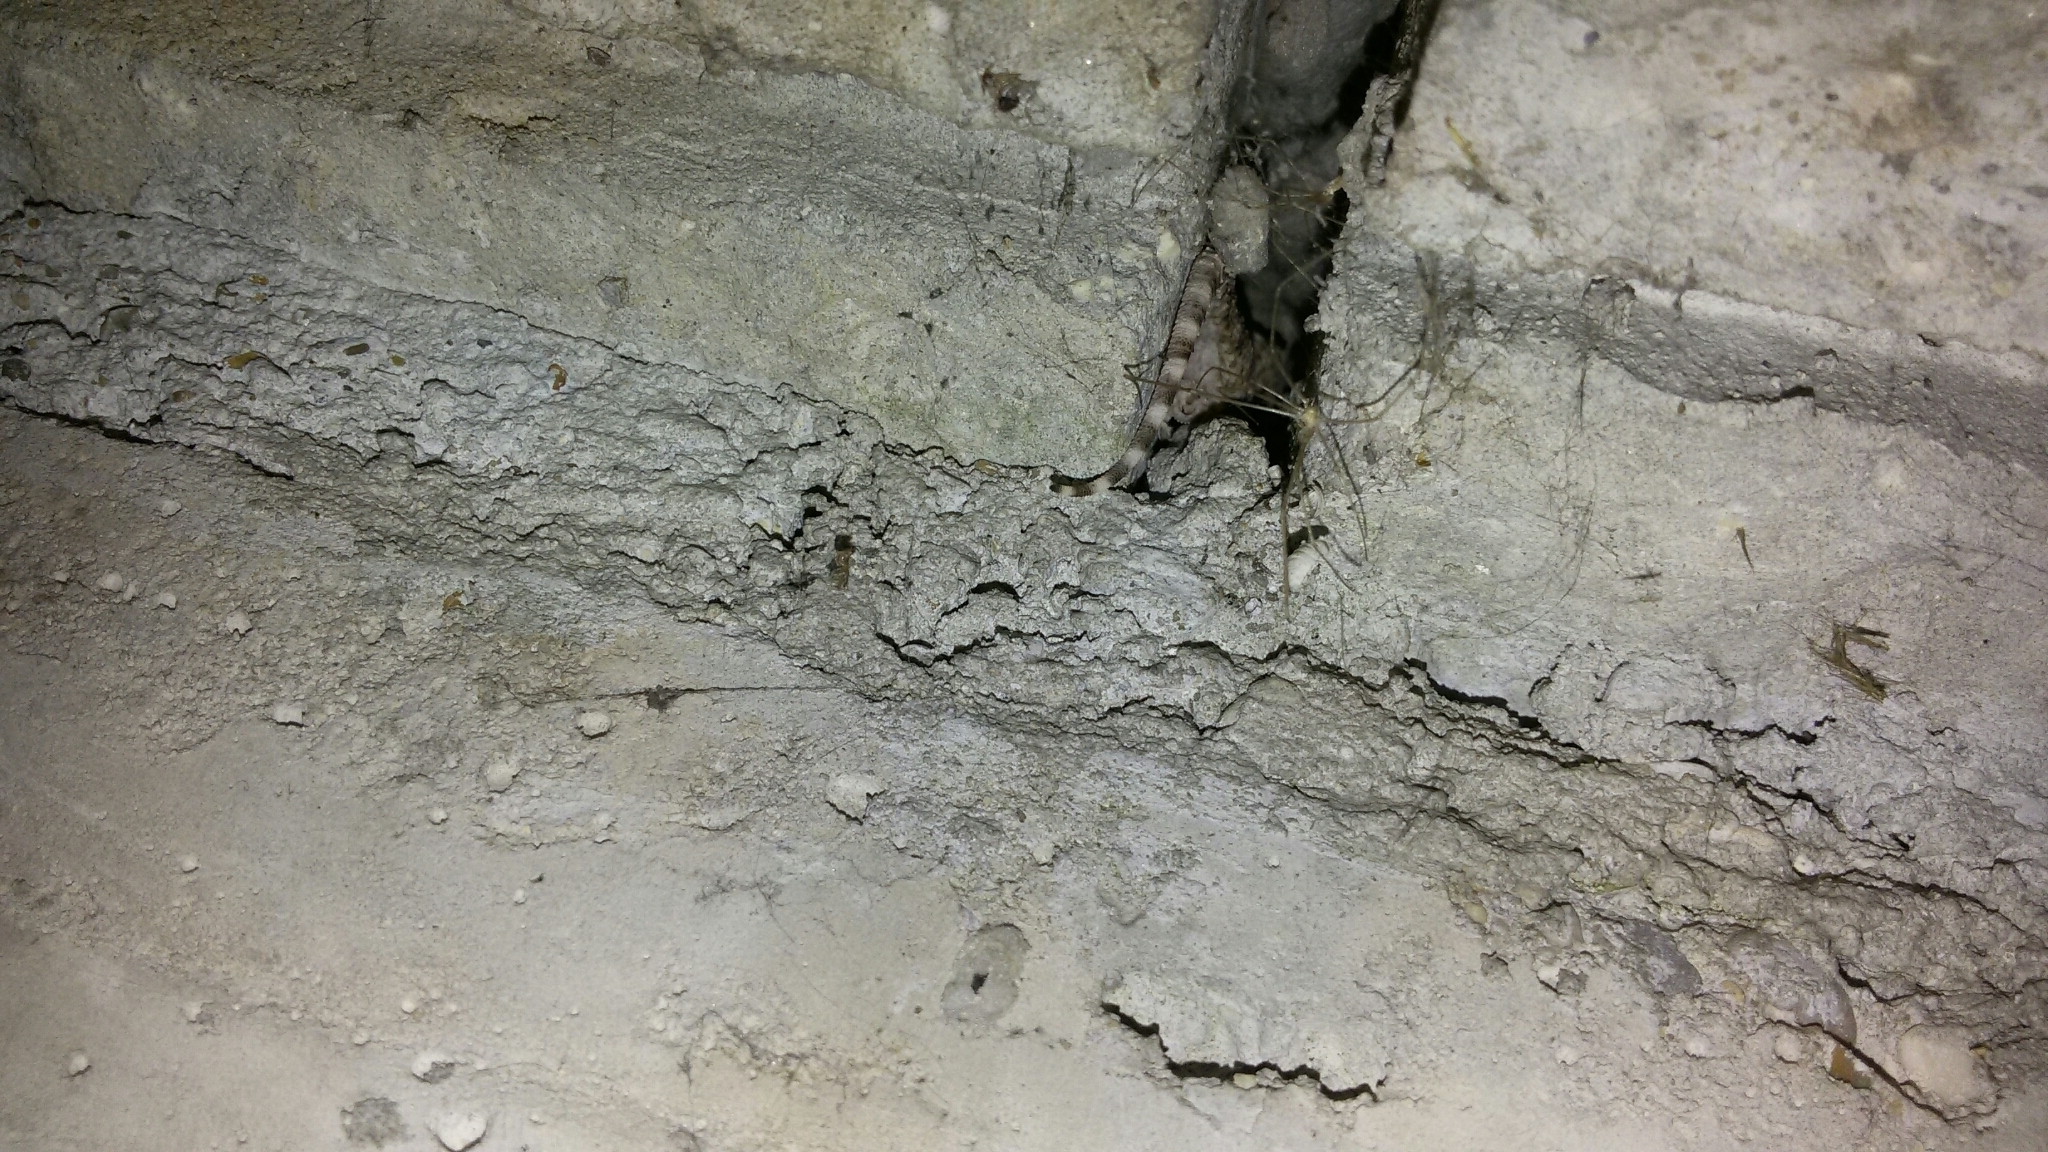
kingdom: Animalia
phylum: Chordata
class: Squamata
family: Phyllodactylidae
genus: Tarentola
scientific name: Tarentola mauritanica
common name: Moorish gecko
